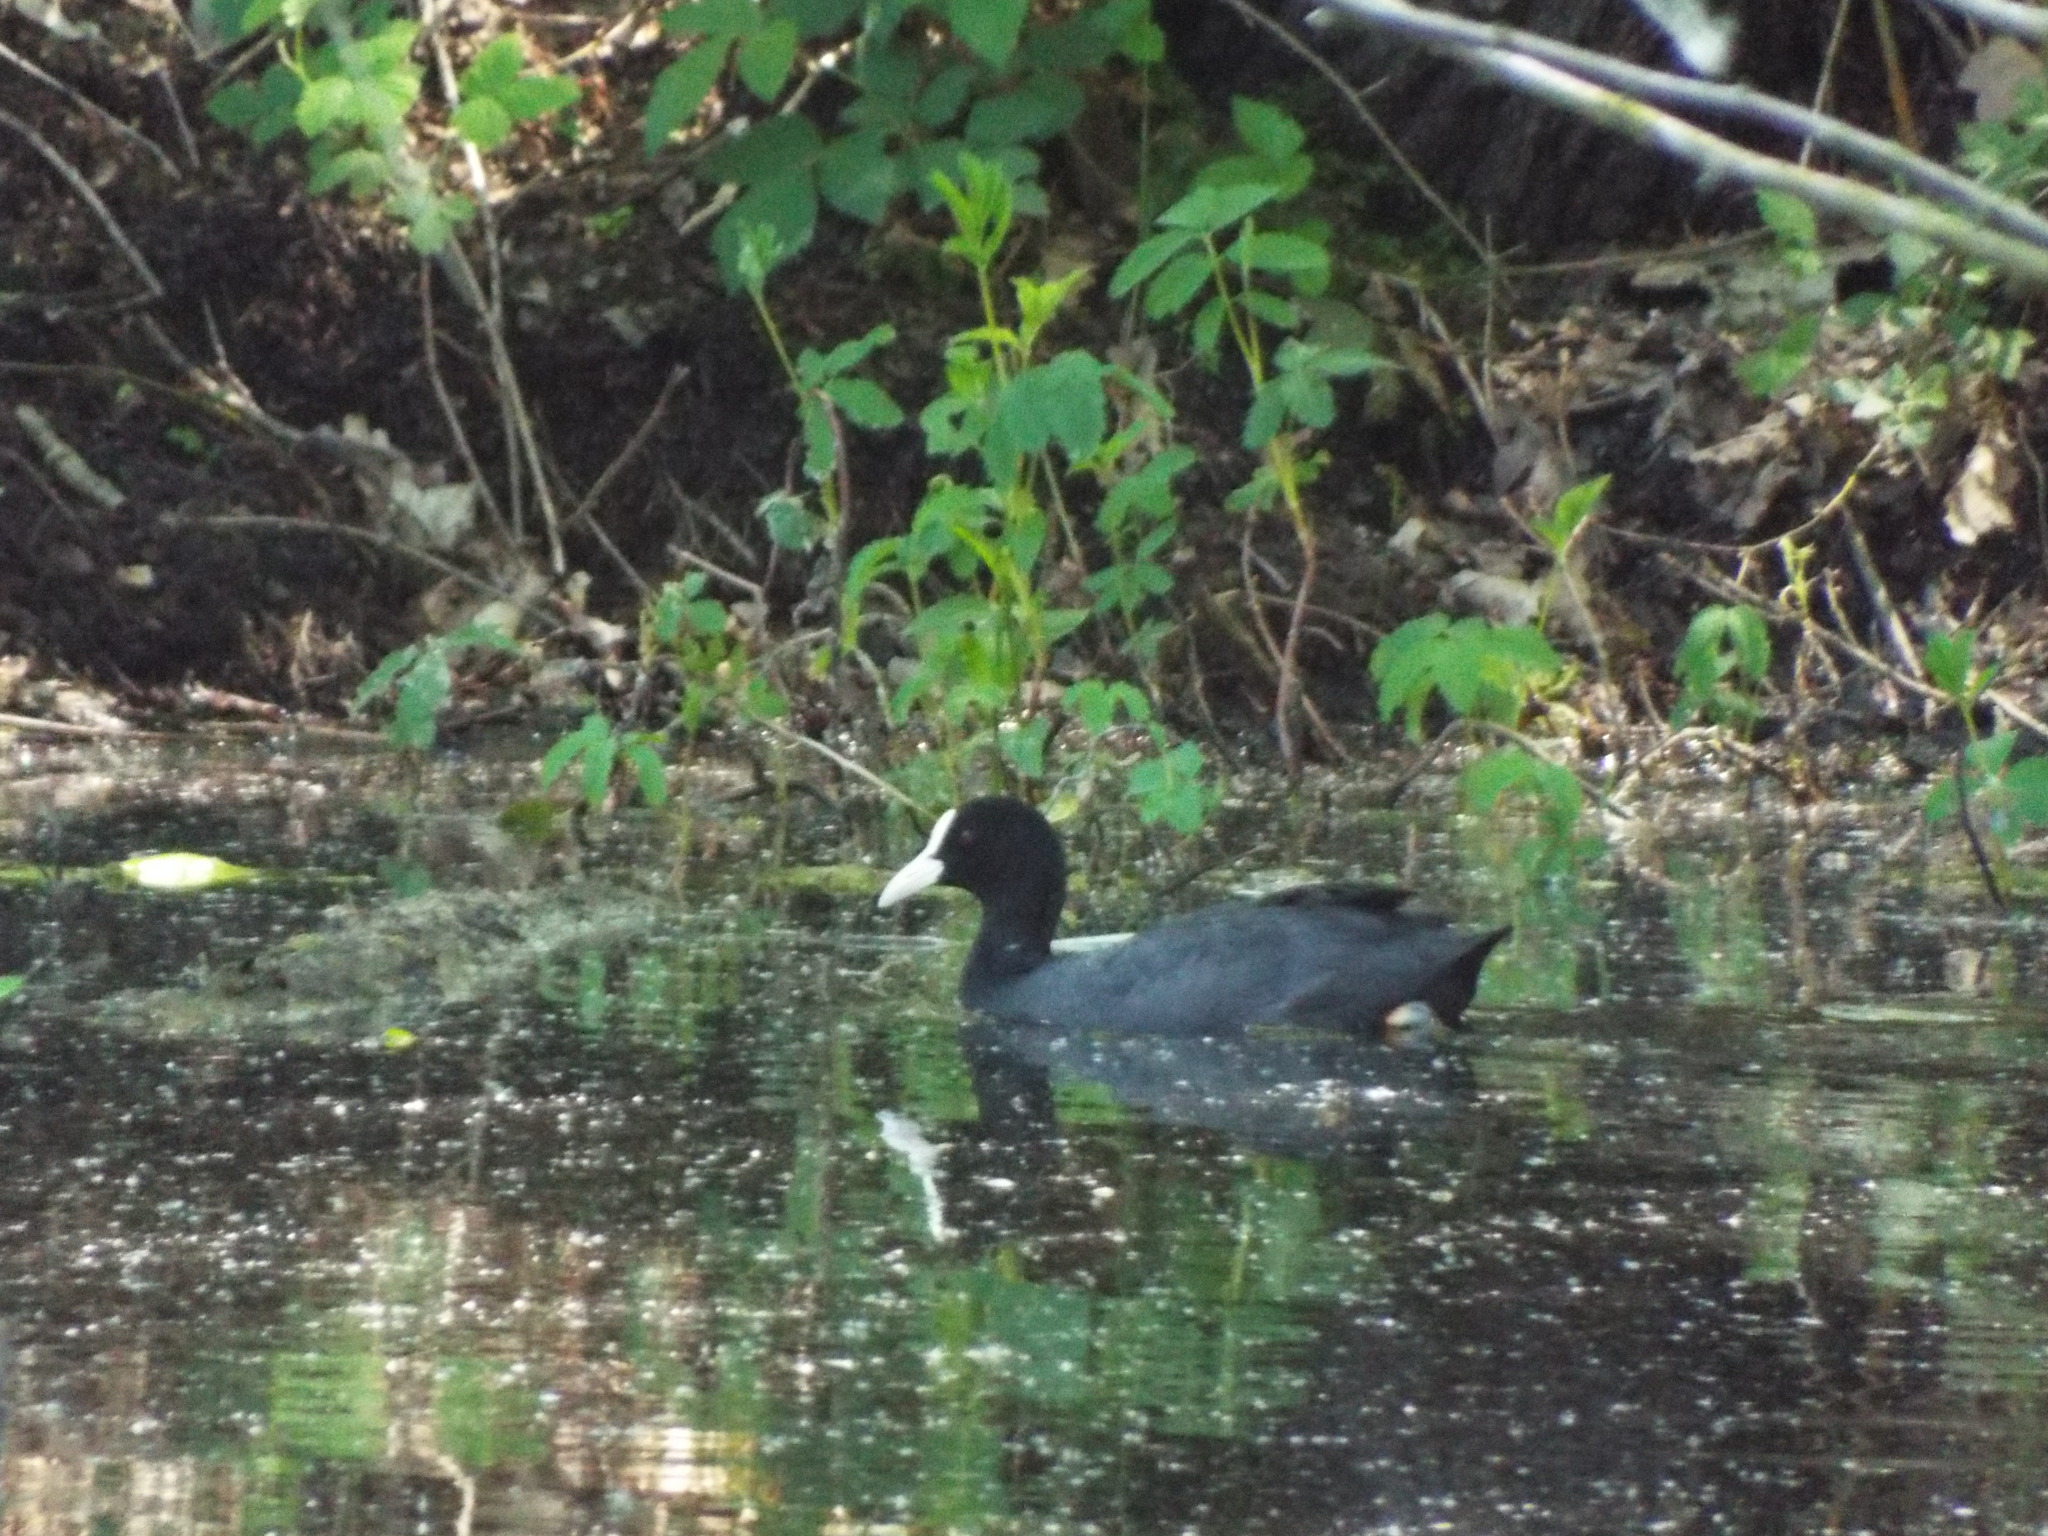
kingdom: Animalia
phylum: Chordata
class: Aves
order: Gruiformes
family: Rallidae
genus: Fulica
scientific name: Fulica atra
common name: Eurasian coot
